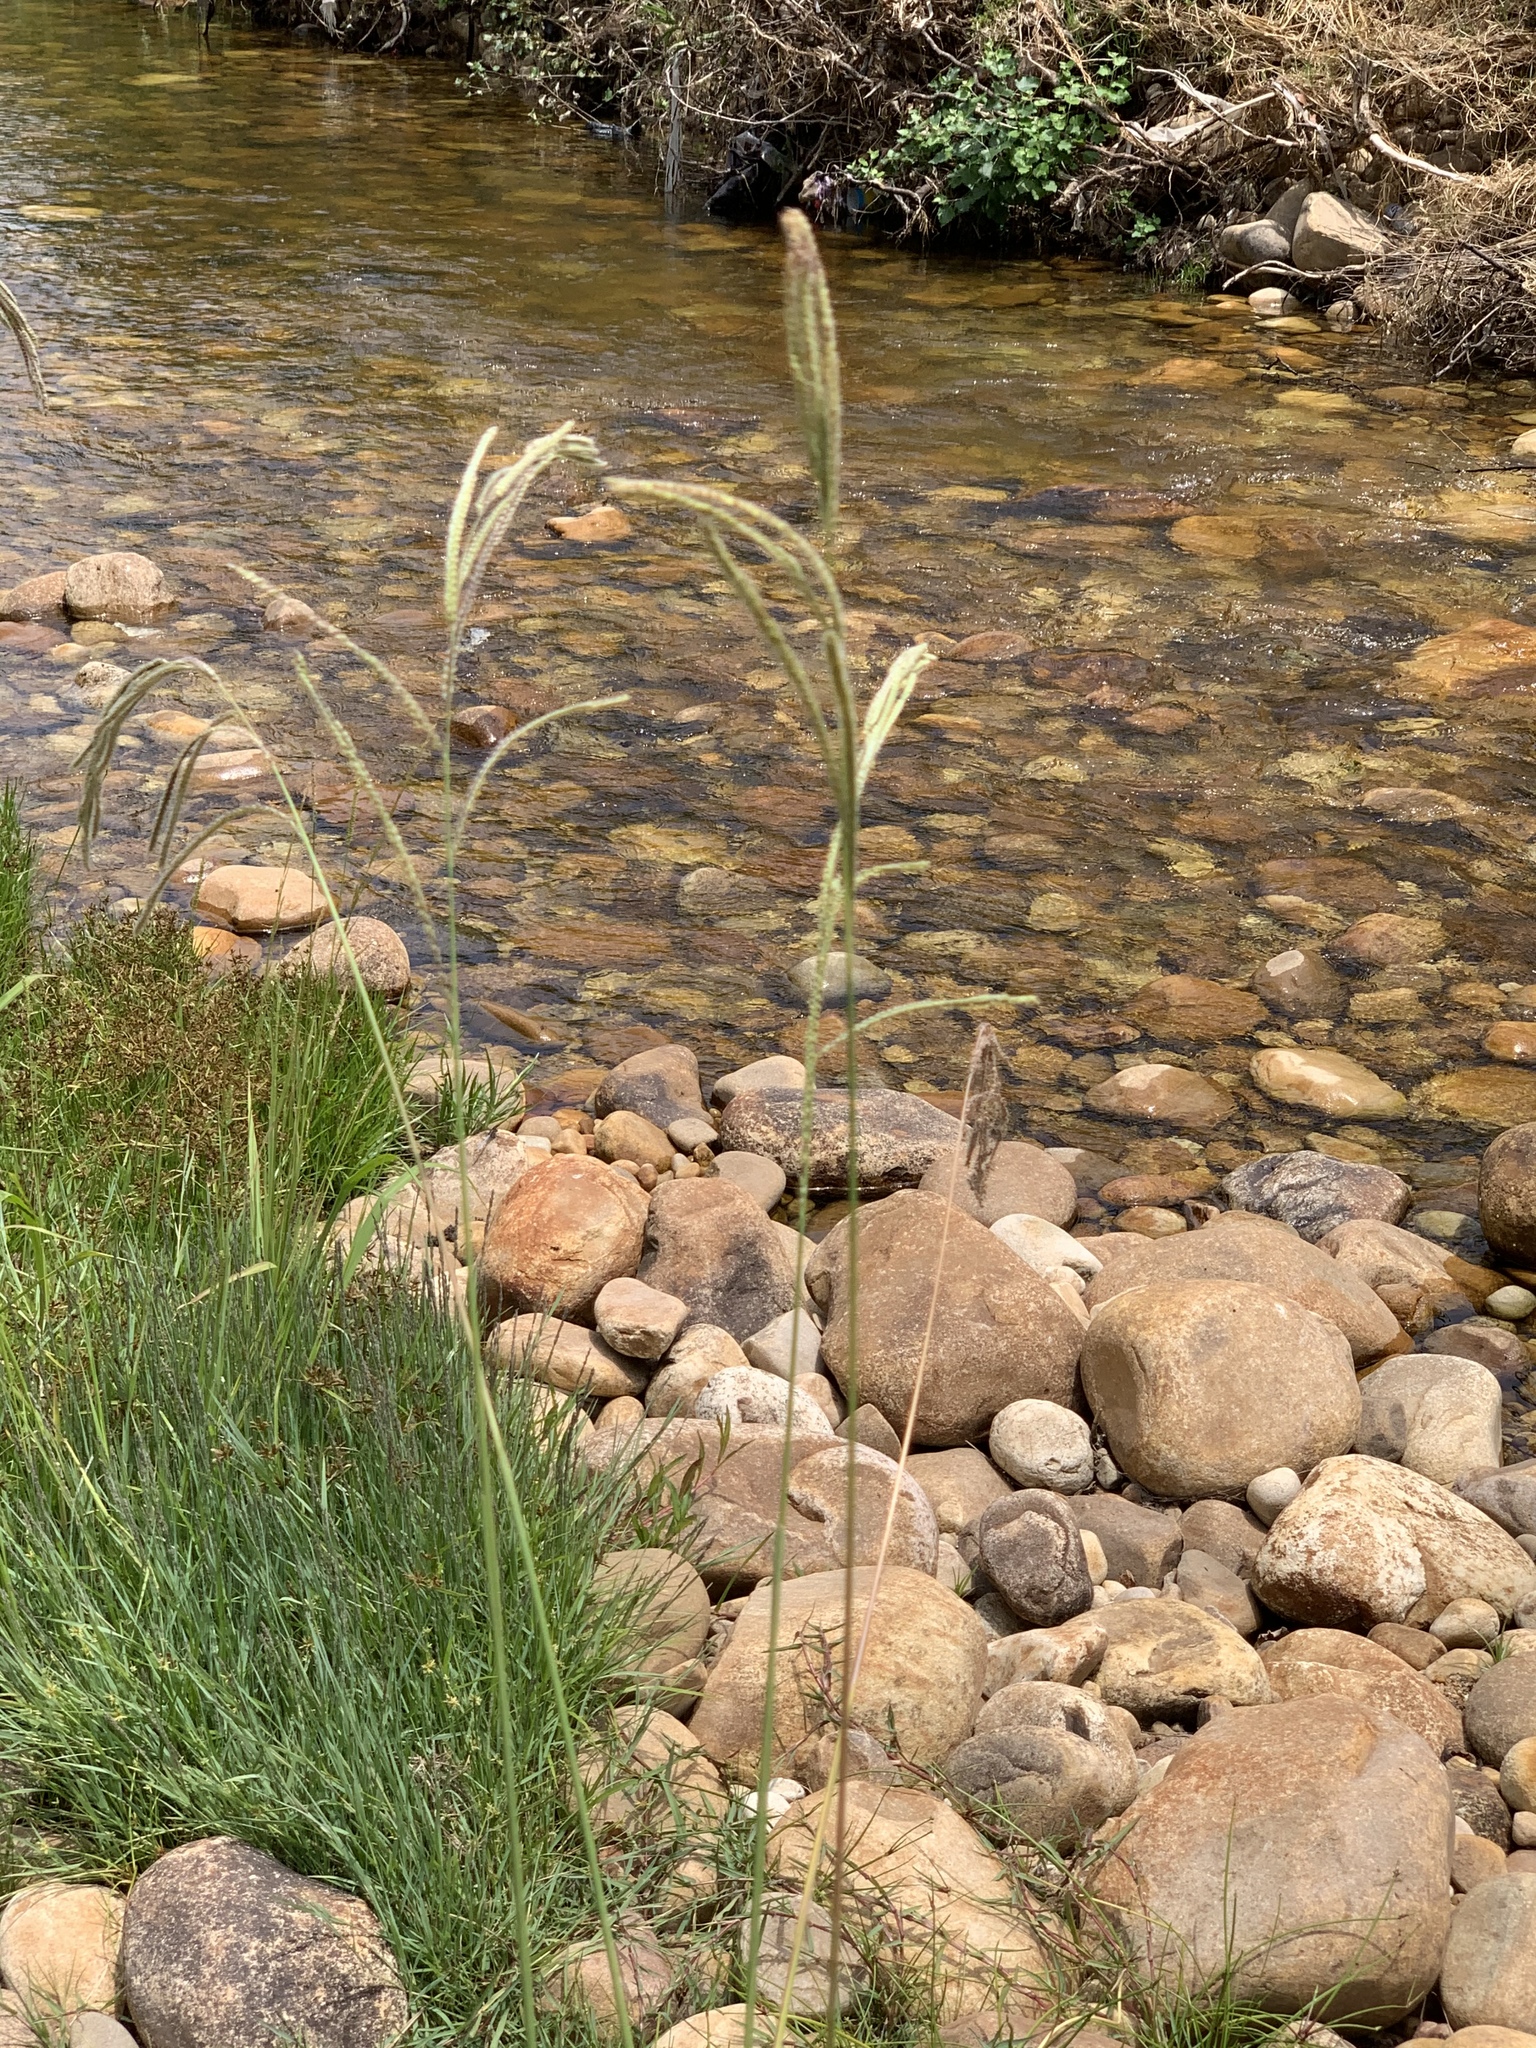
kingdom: Plantae
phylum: Tracheophyta
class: Liliopsida
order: Poales
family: Poaceae
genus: Paspalum
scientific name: Paspalum urvillei
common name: Vasey's grass
